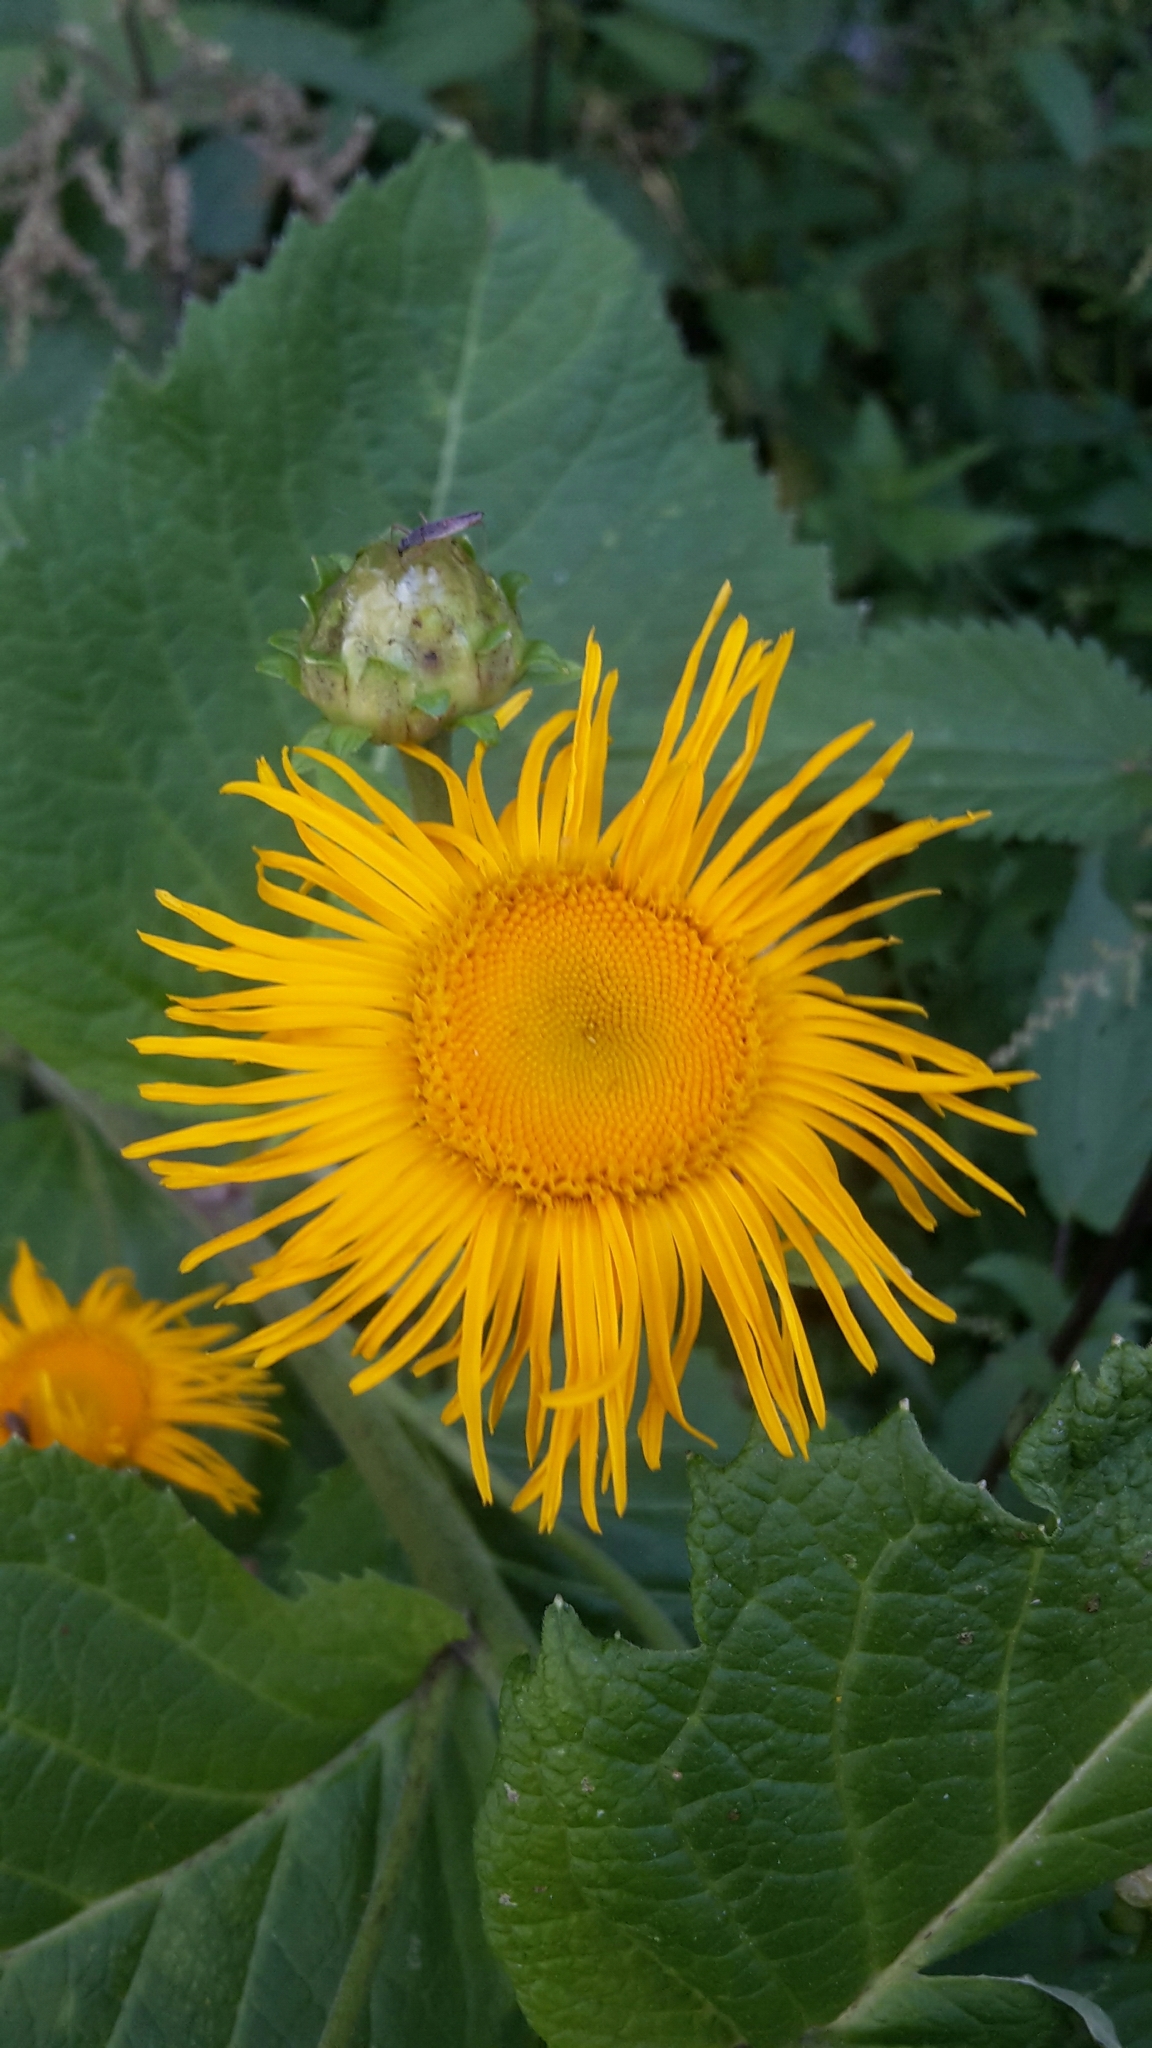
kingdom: Plantae
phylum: Tracheophyta
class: Magnoliopsida
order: Asterales
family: Asteraceae
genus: Telekia
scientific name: Telekia speciosa
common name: Yellow oxeye
